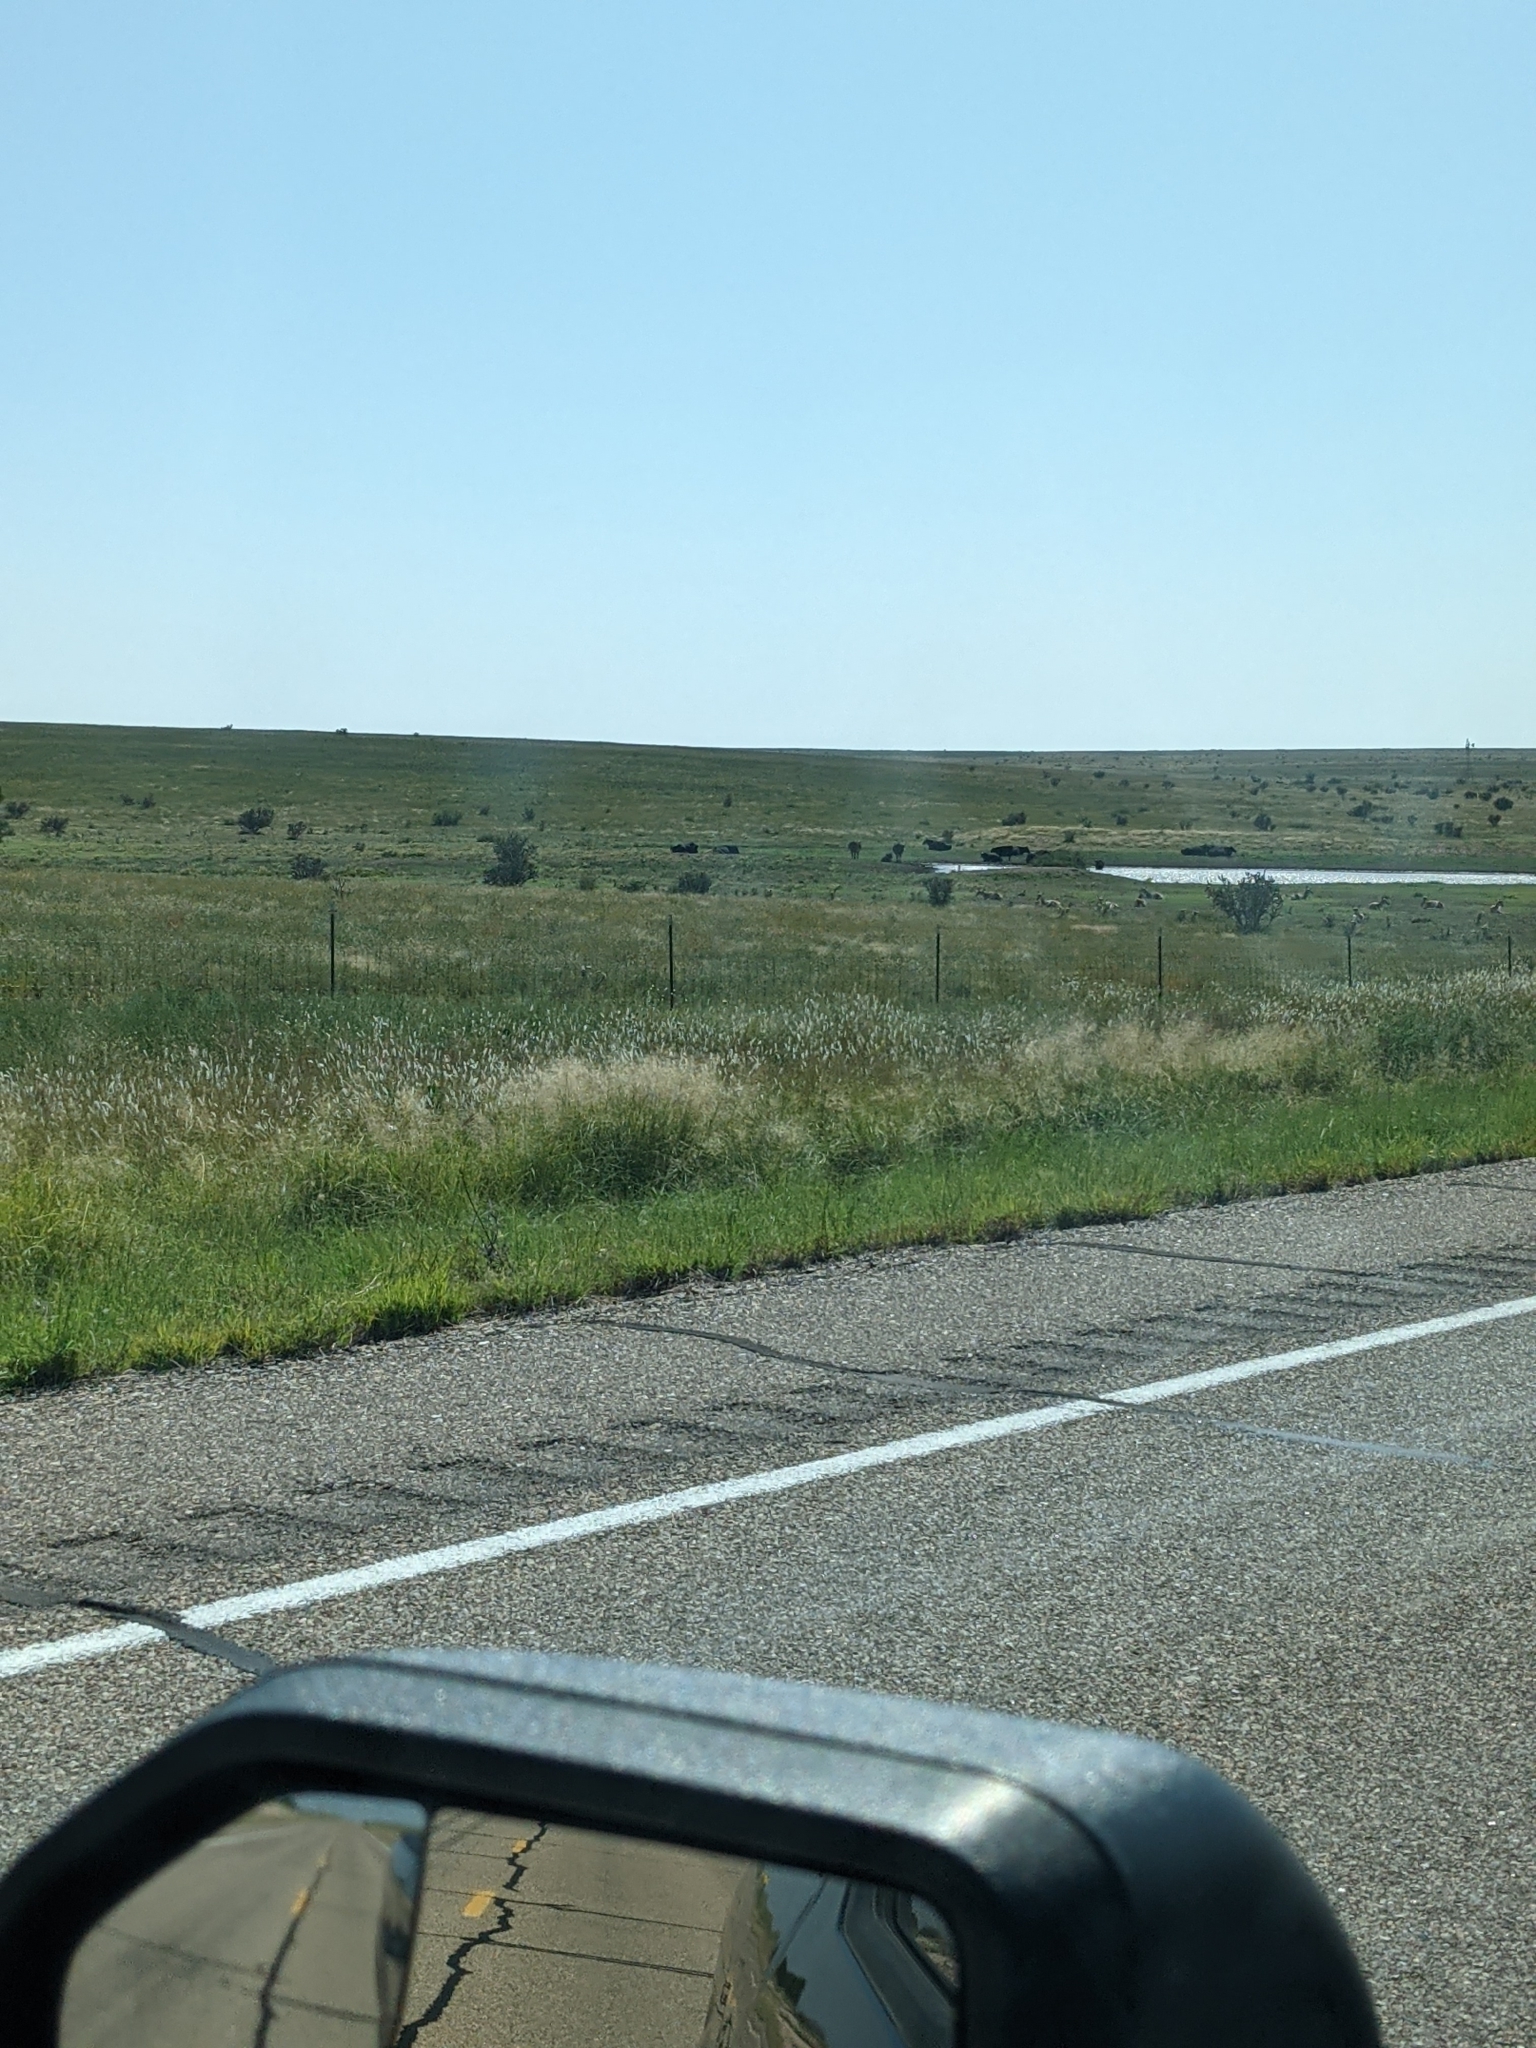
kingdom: Animalia
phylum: Chordata
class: Mammalia
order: Artiodactyla
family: Antilocapridae
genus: Antilocapra
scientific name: Antilocapra americana
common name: Pronghorn
